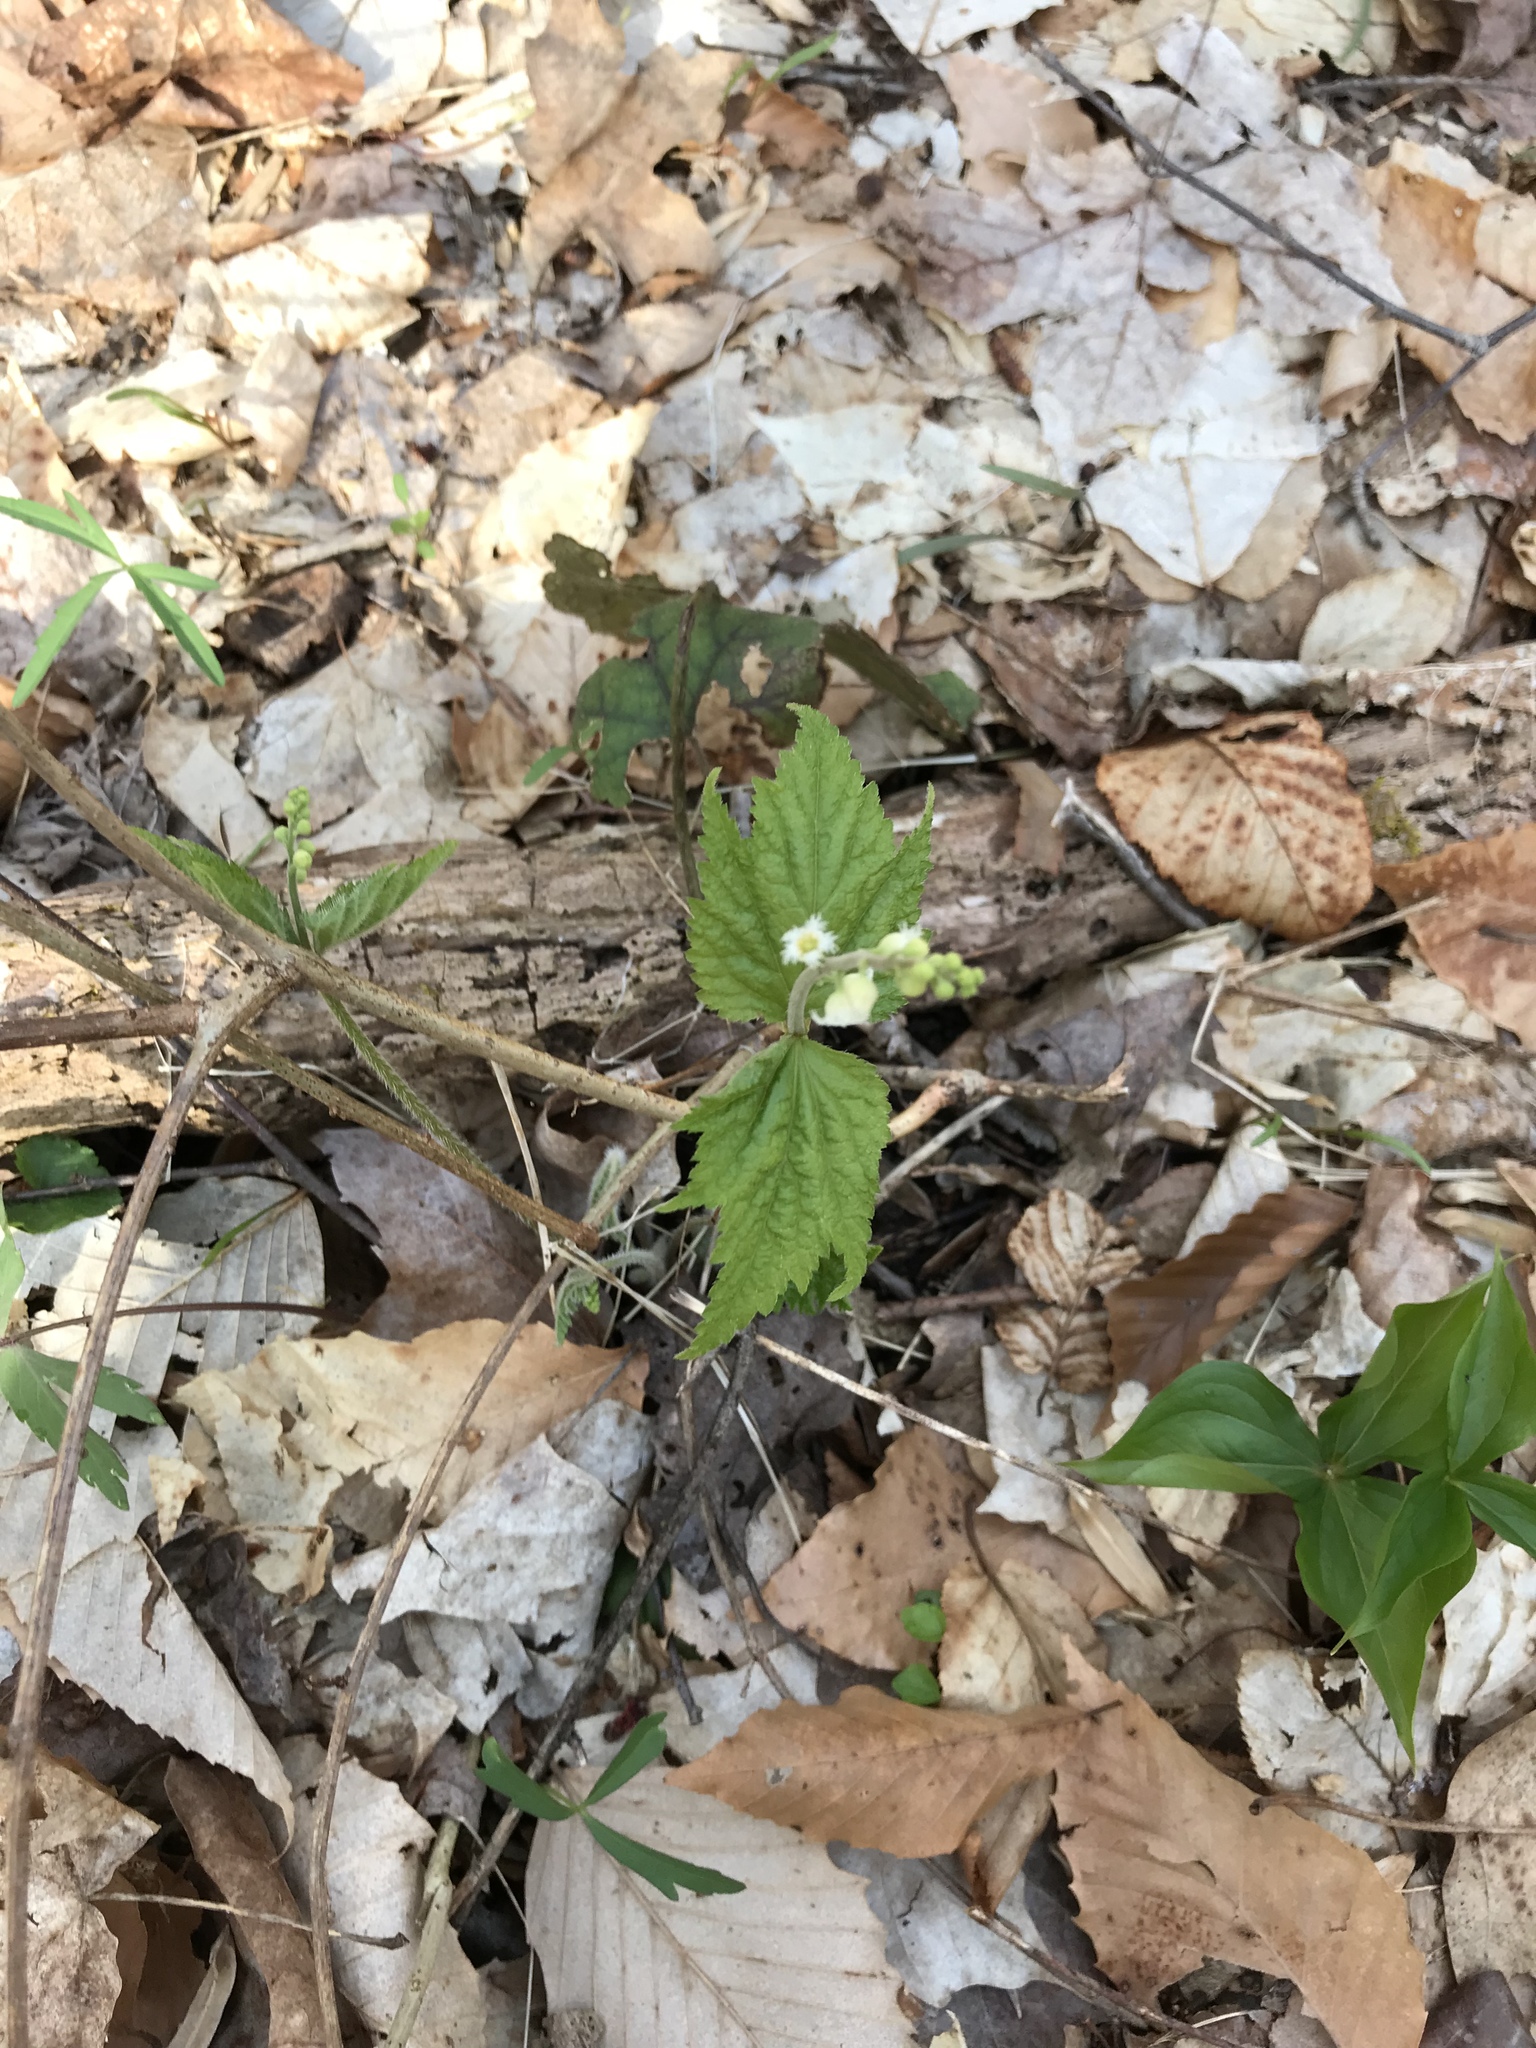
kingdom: Plantae
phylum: Tracheophyta
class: Magnoliopsida
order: Saxifragales
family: Saxifragaceae
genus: Mitella
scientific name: Mitella diphylla
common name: Coolwort
